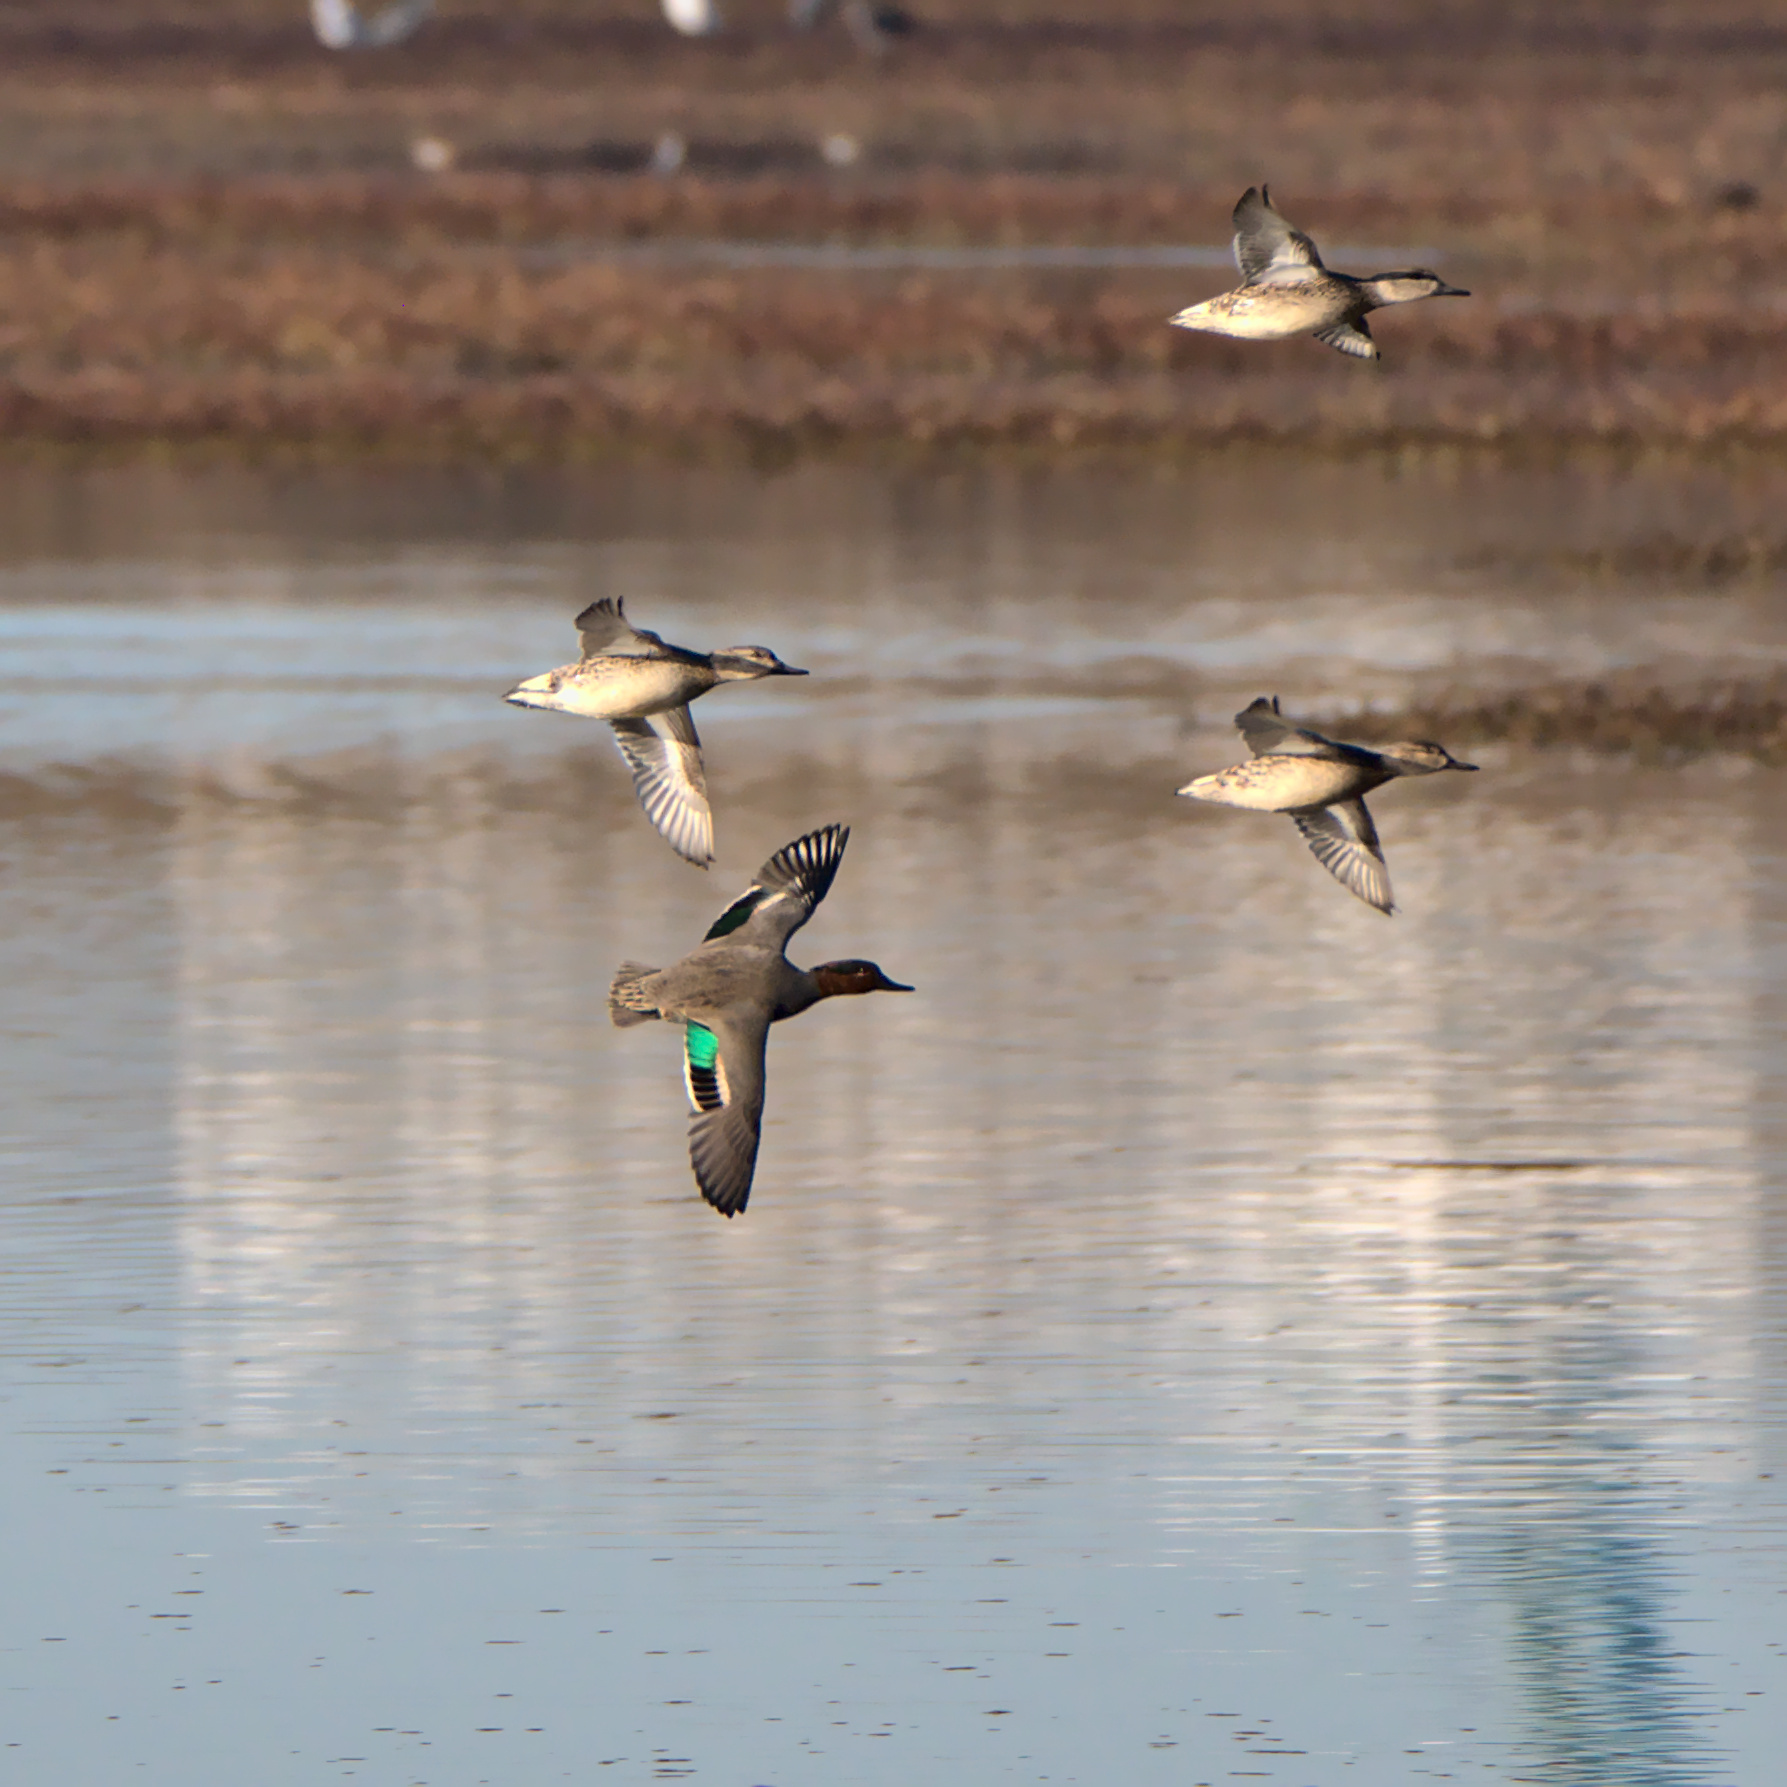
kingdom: Animalia
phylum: Chordata
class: Aves
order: Anseriformes
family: Anatidae
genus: Anas
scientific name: Anas crecca
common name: Eurasian teal
